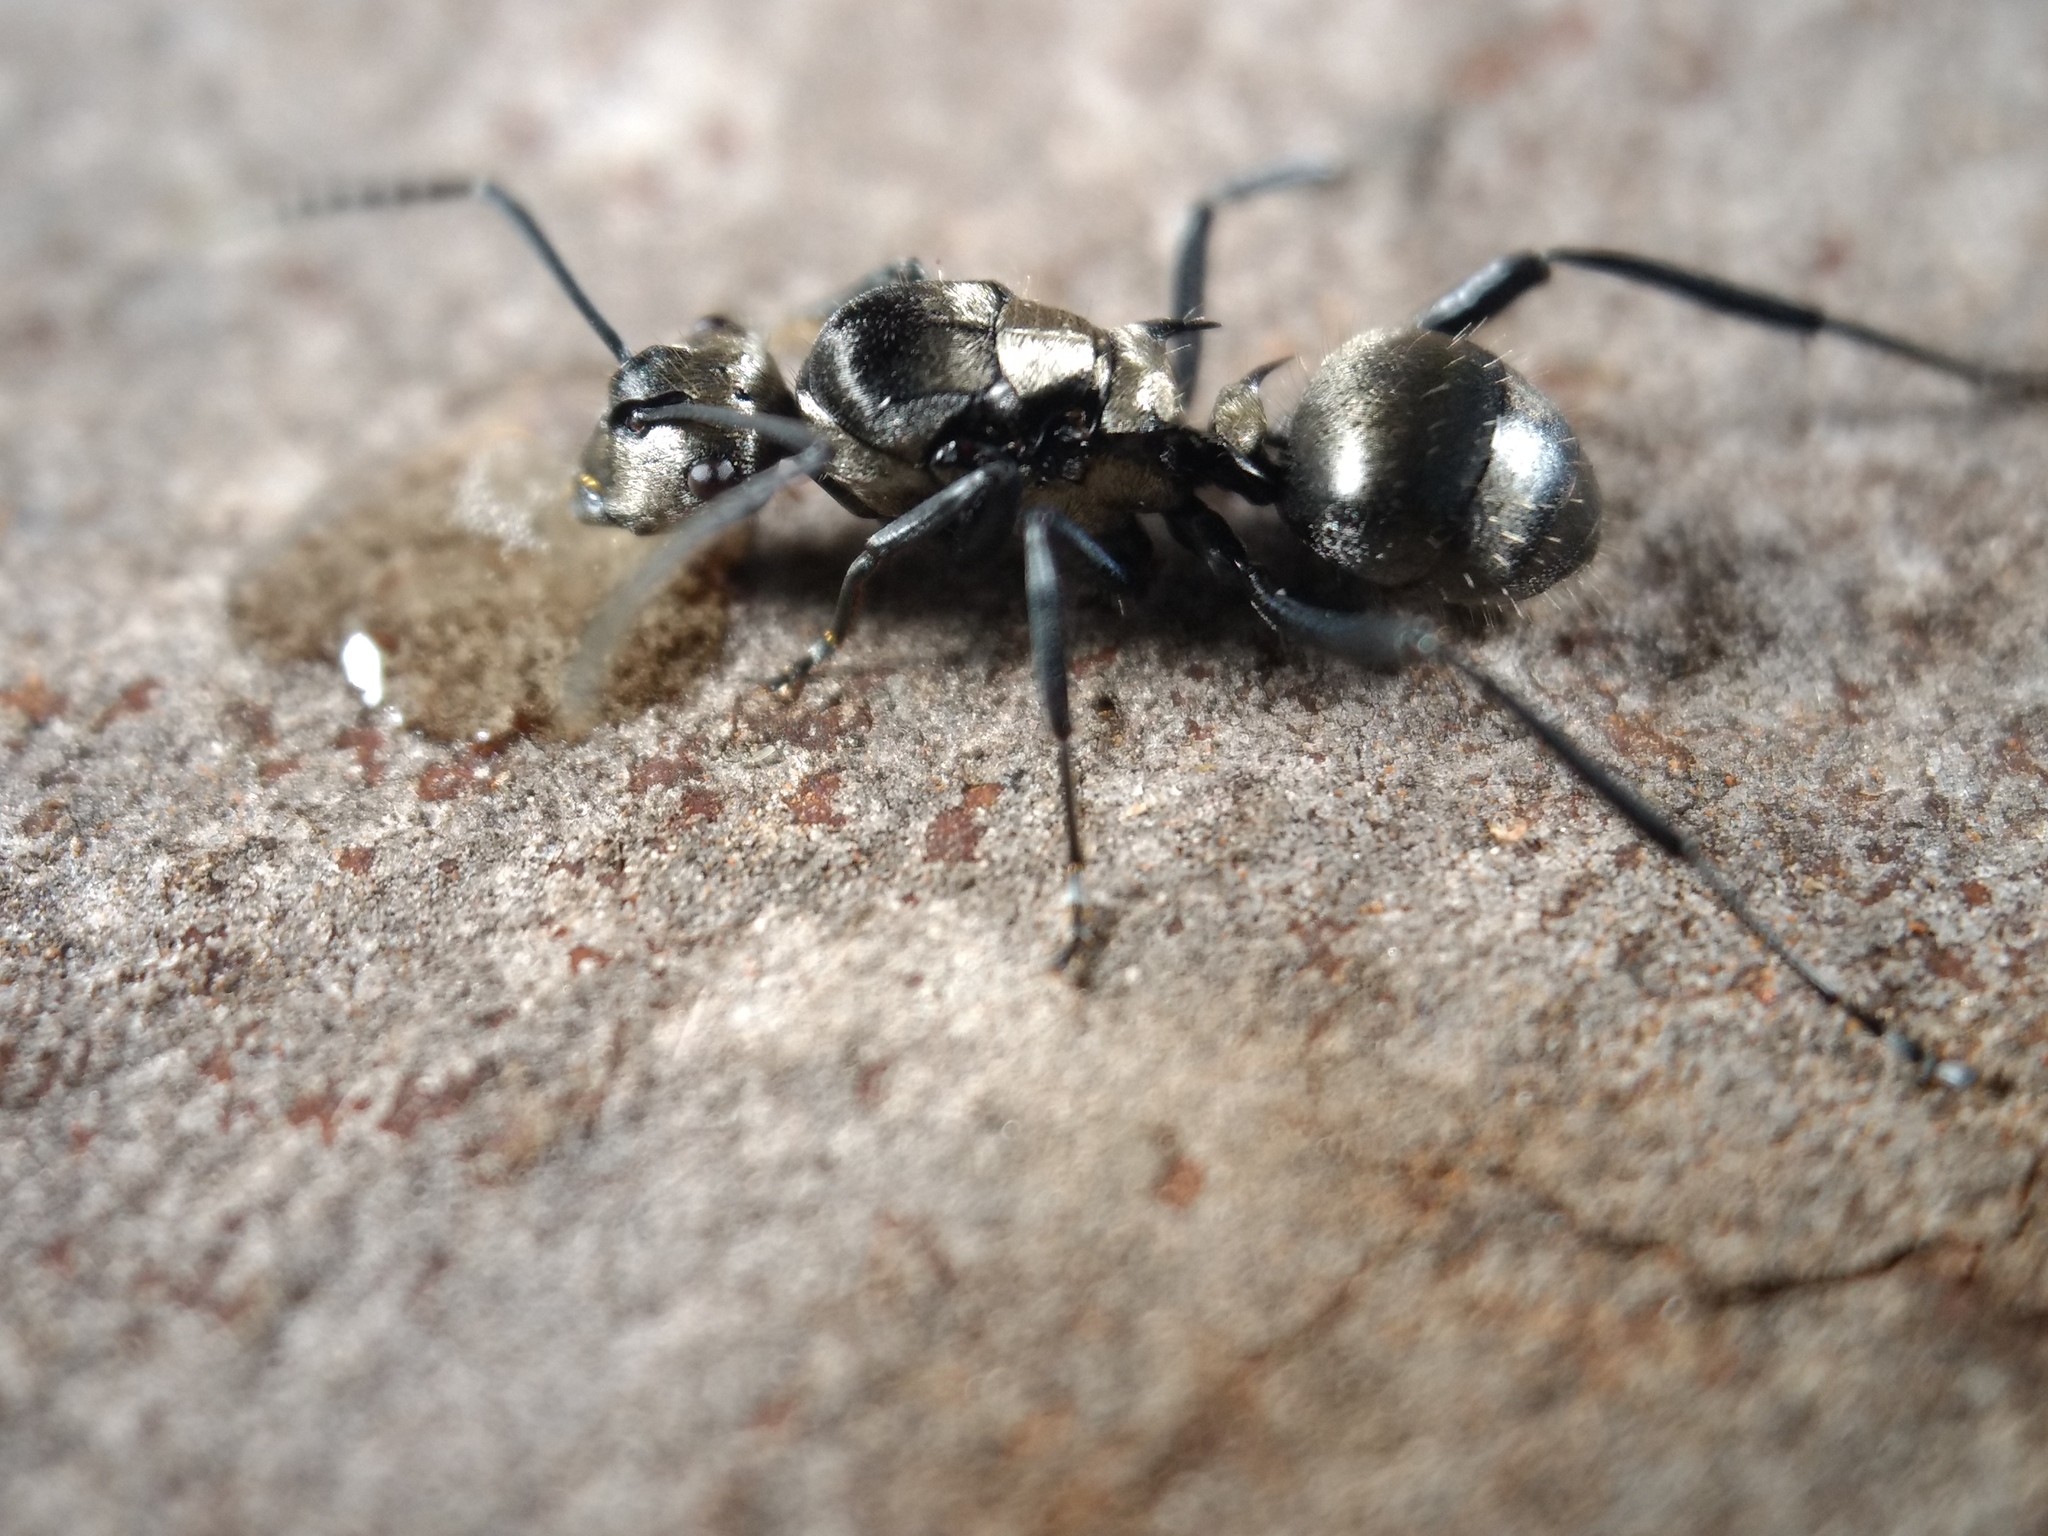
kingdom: Animalia
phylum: Arthropoda
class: Insecta
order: Hymenoptera
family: Formicidae
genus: Polyrhachis
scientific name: Polyrhachis daemeli
